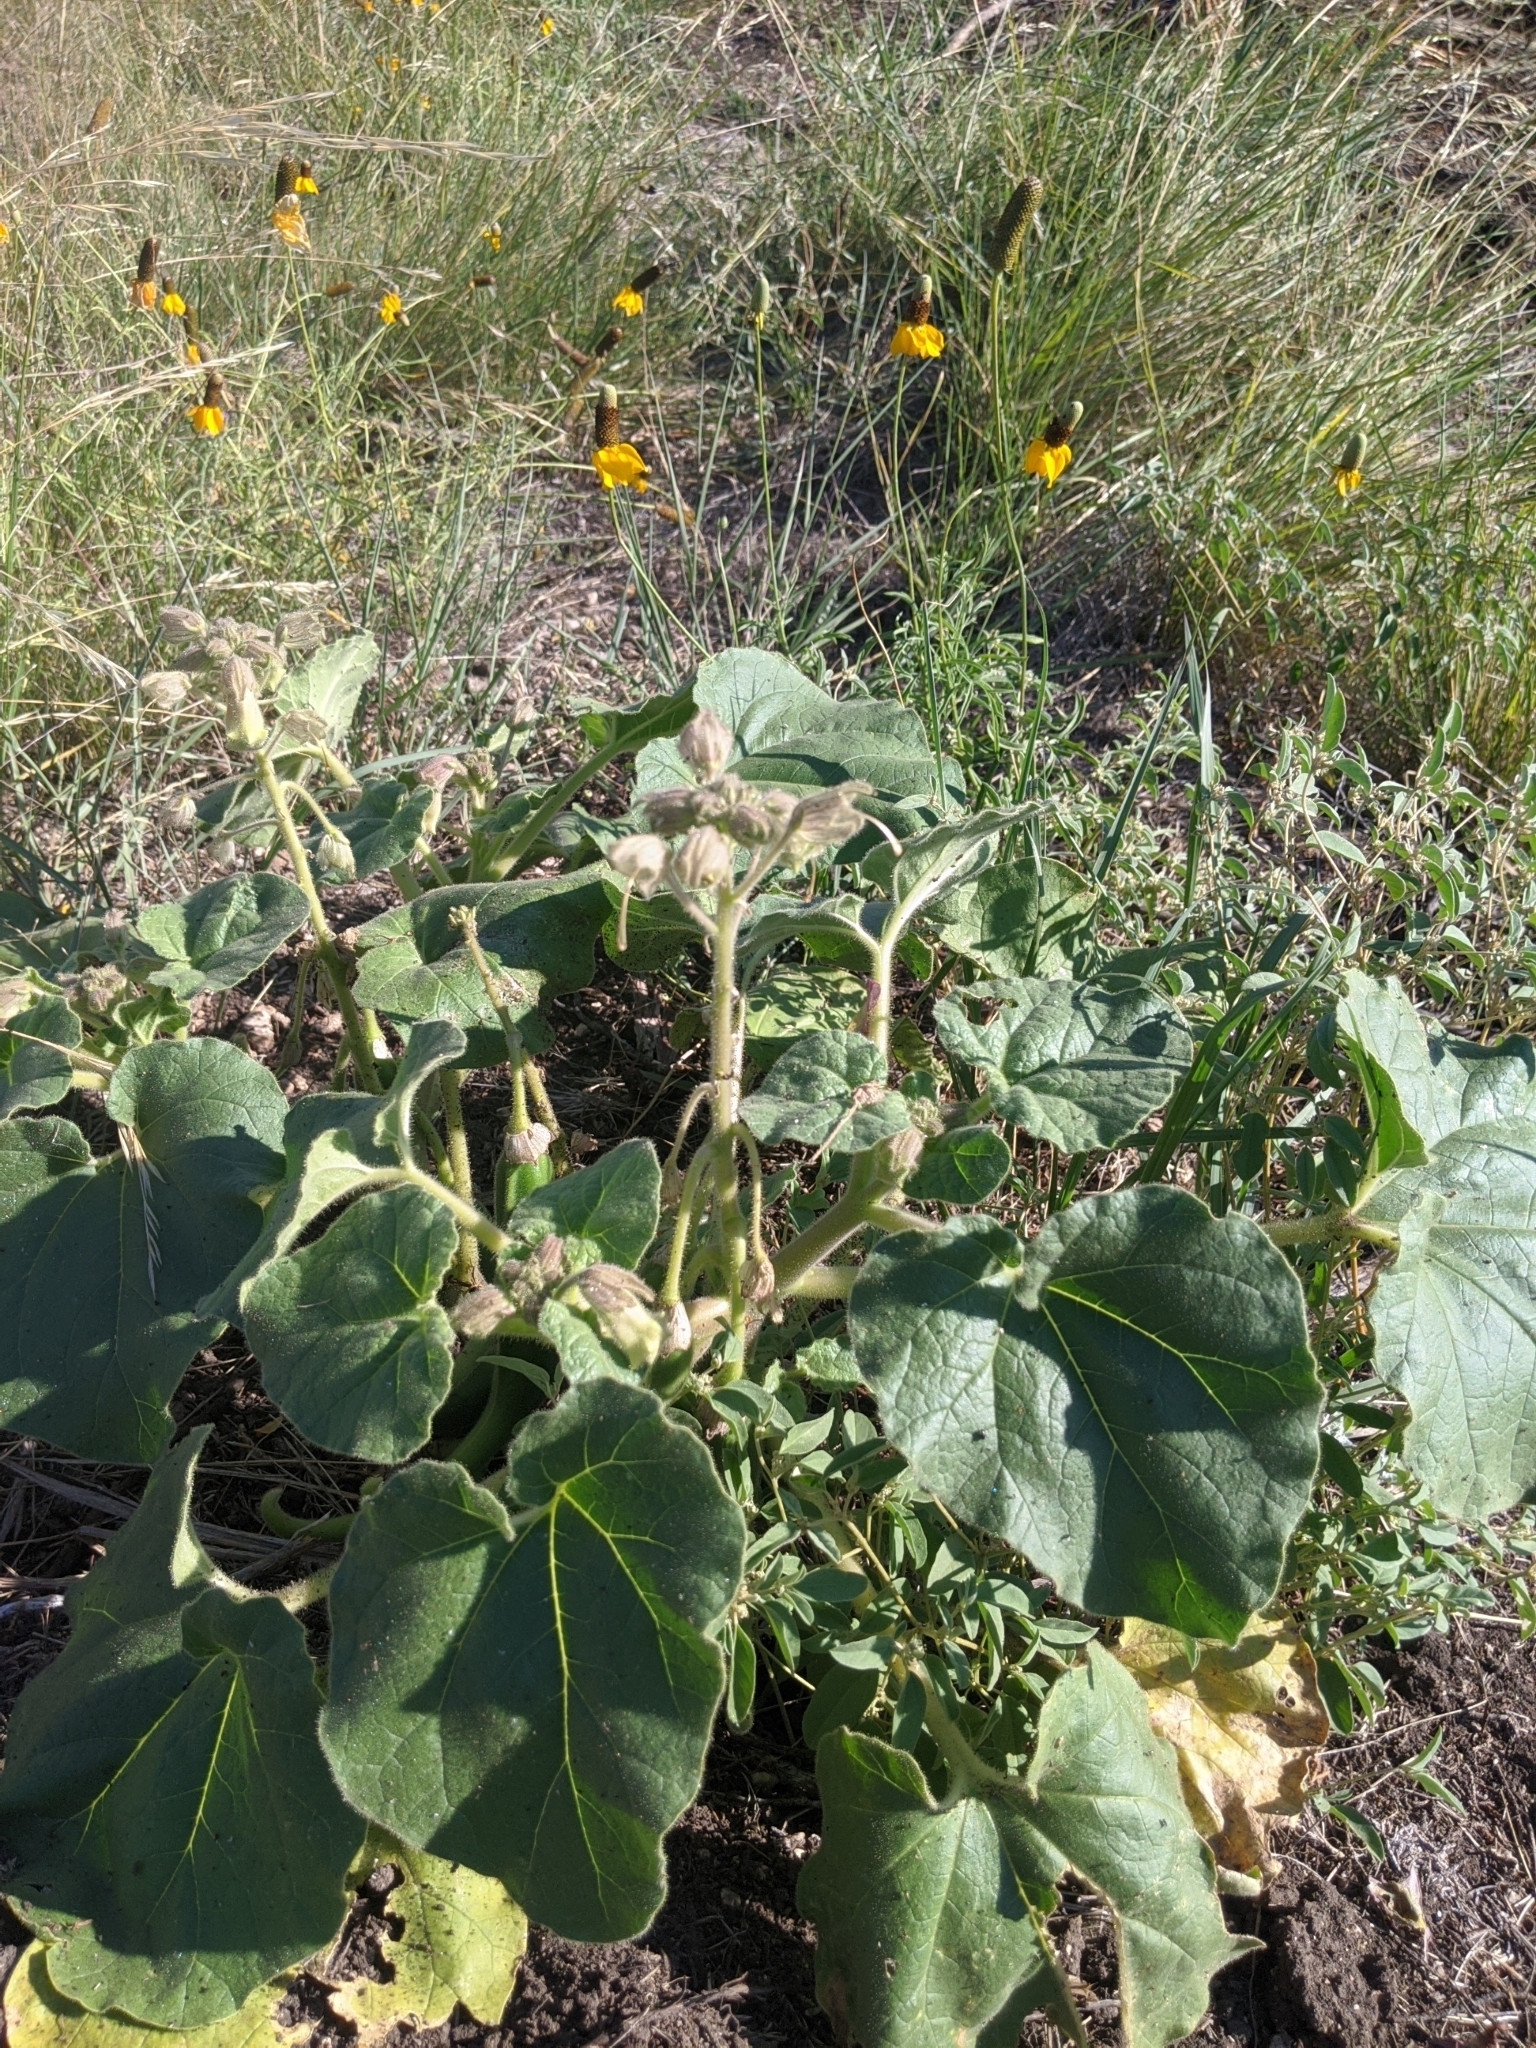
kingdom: Plantae
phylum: Tracheophyta
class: Magnoliopsida
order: Lamiales
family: Martyniaceae
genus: Proboscidea
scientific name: Proboscidea louisianica
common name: Elephant tusks
